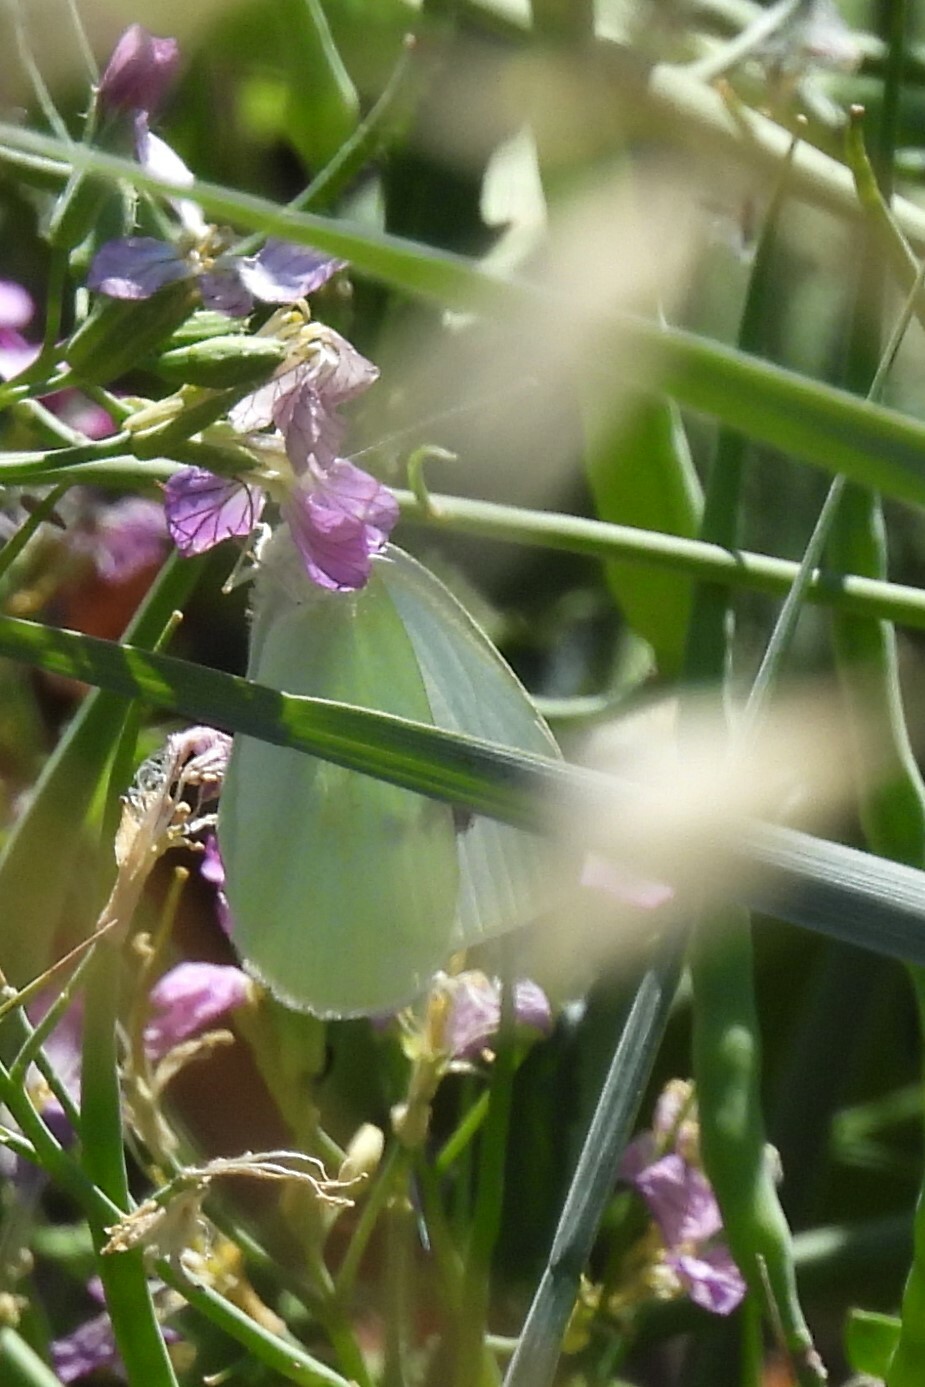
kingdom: Animalia
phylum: Arthropoda
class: Insecta
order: Lepidoptera
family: Pieridae
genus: Pieris
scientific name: Pieris rapae
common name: Small white
